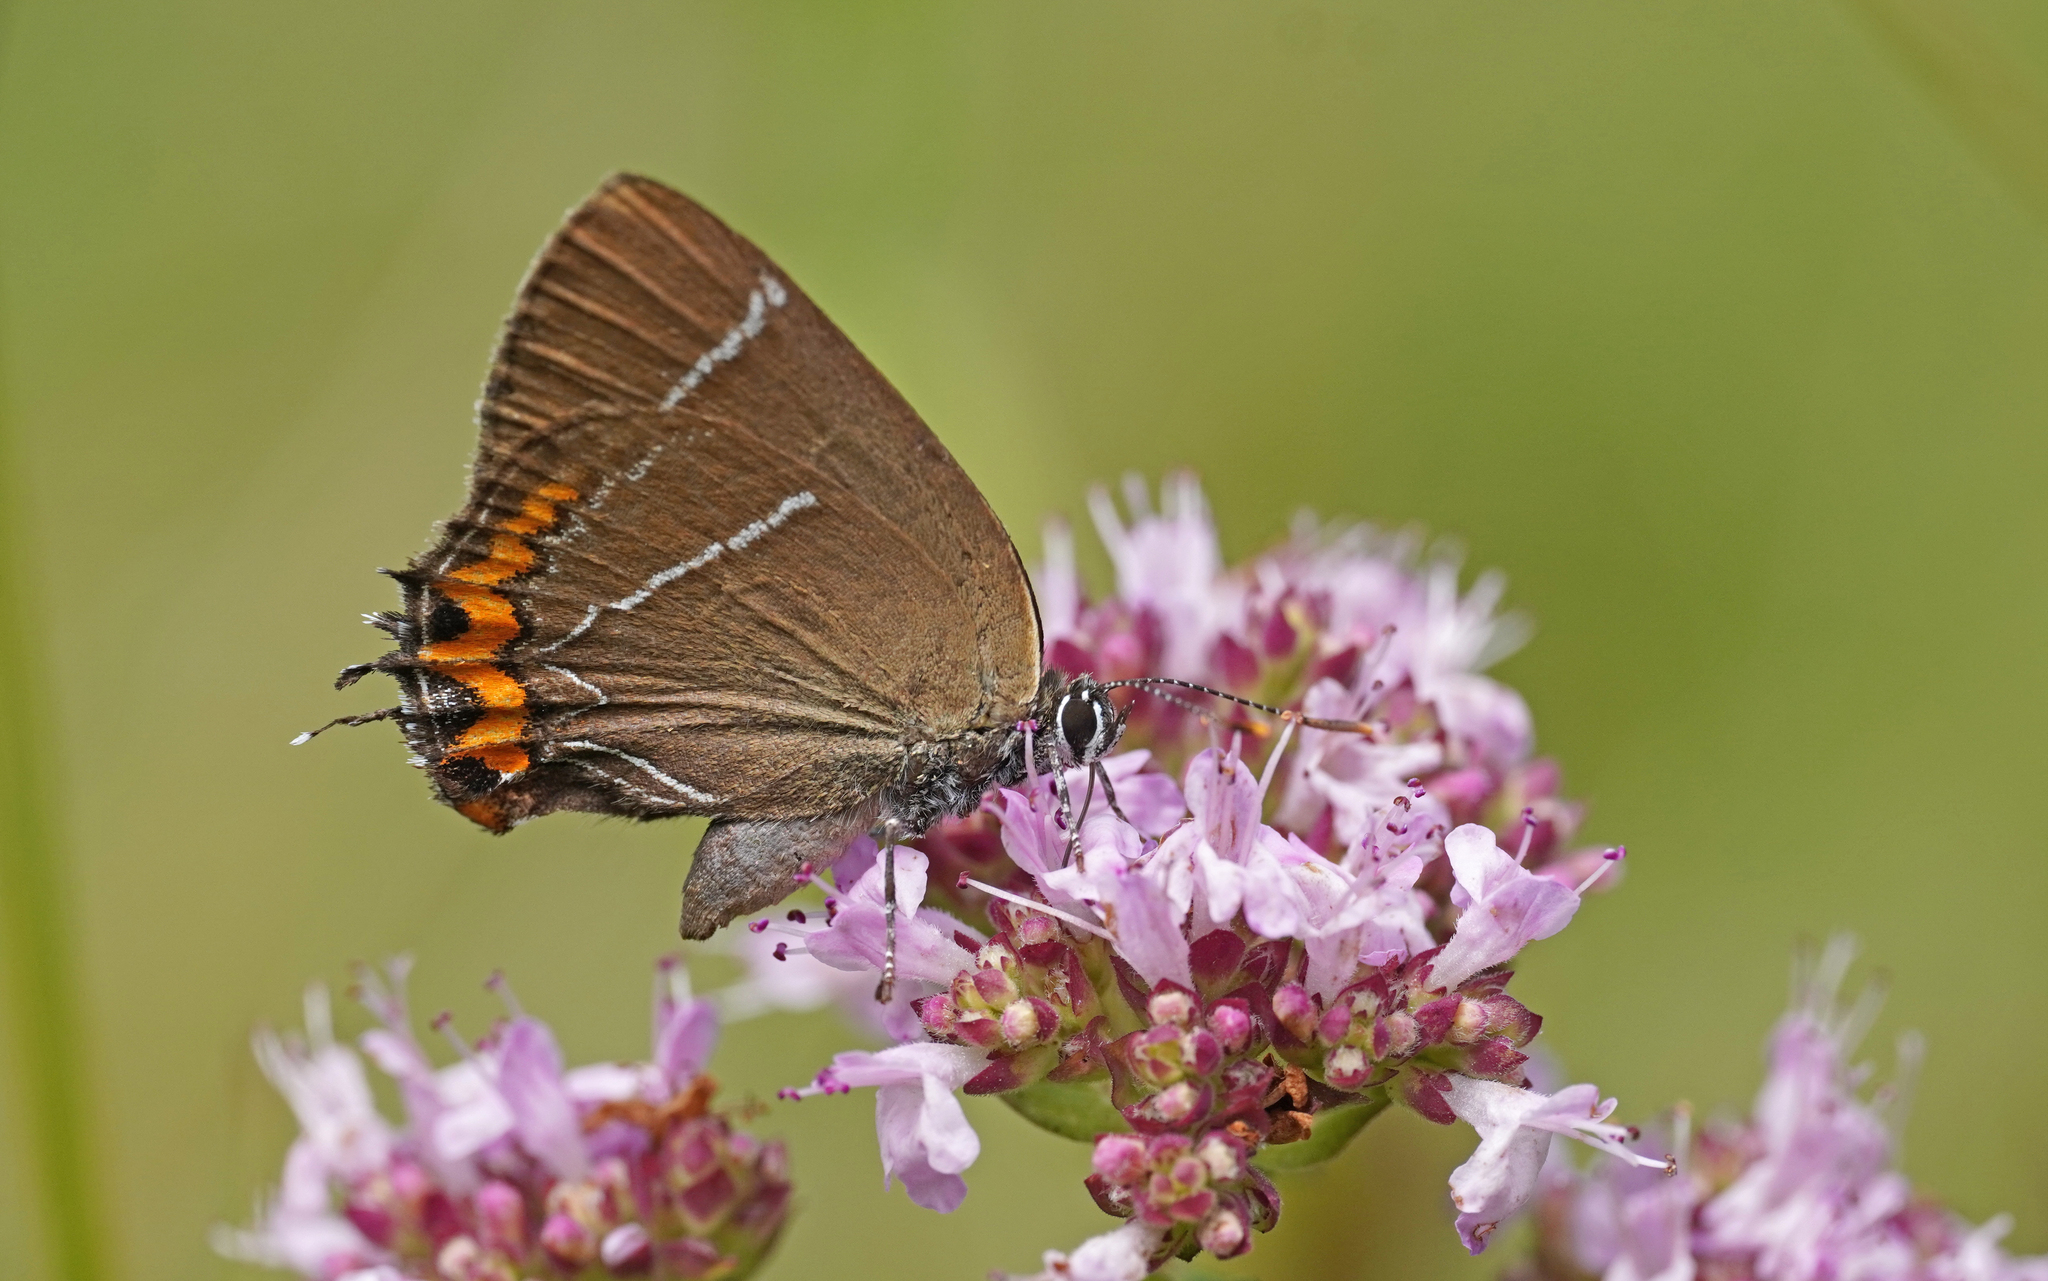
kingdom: Animalia
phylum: Arthropoda
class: Insecta
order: Lepidoptera
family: Lycaenidae
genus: Satyrium
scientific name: Satyrium w-album
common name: White-letter hairstreak
